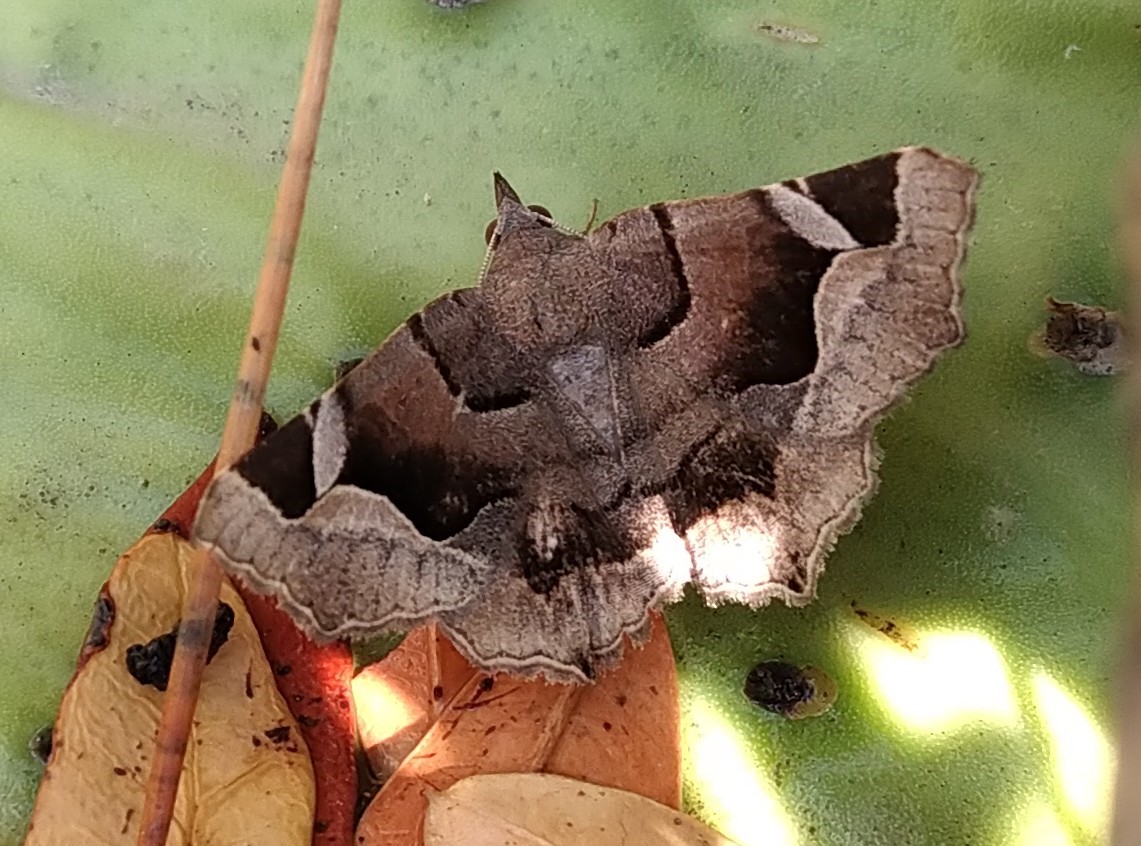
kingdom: Animalia
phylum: Arthropoda
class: Insecta
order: Lepidoptera
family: Erebidae
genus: Zethes
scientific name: Zethes insularis
